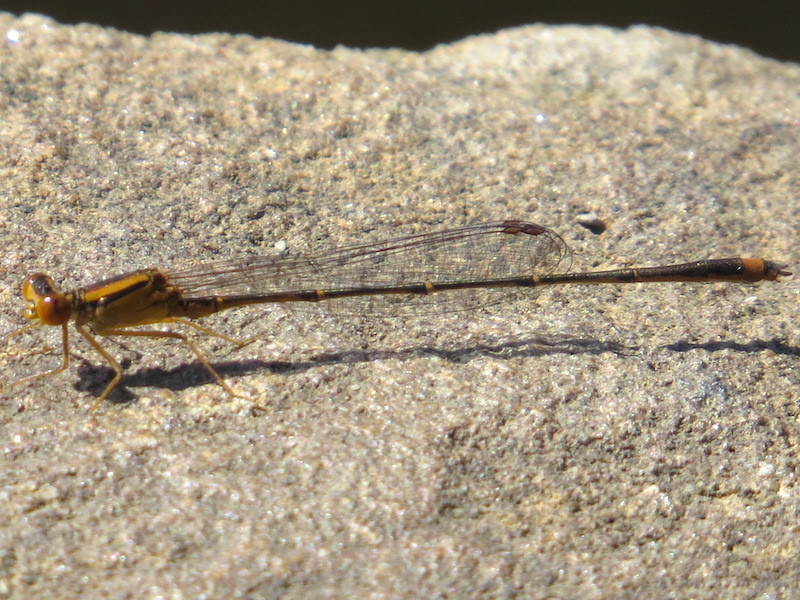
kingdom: Animalia
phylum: Arthropoda
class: Insecta
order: Odonata
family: Coenagrionidae
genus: Enallagma
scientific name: Enallagma signatum
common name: Orange bluet
